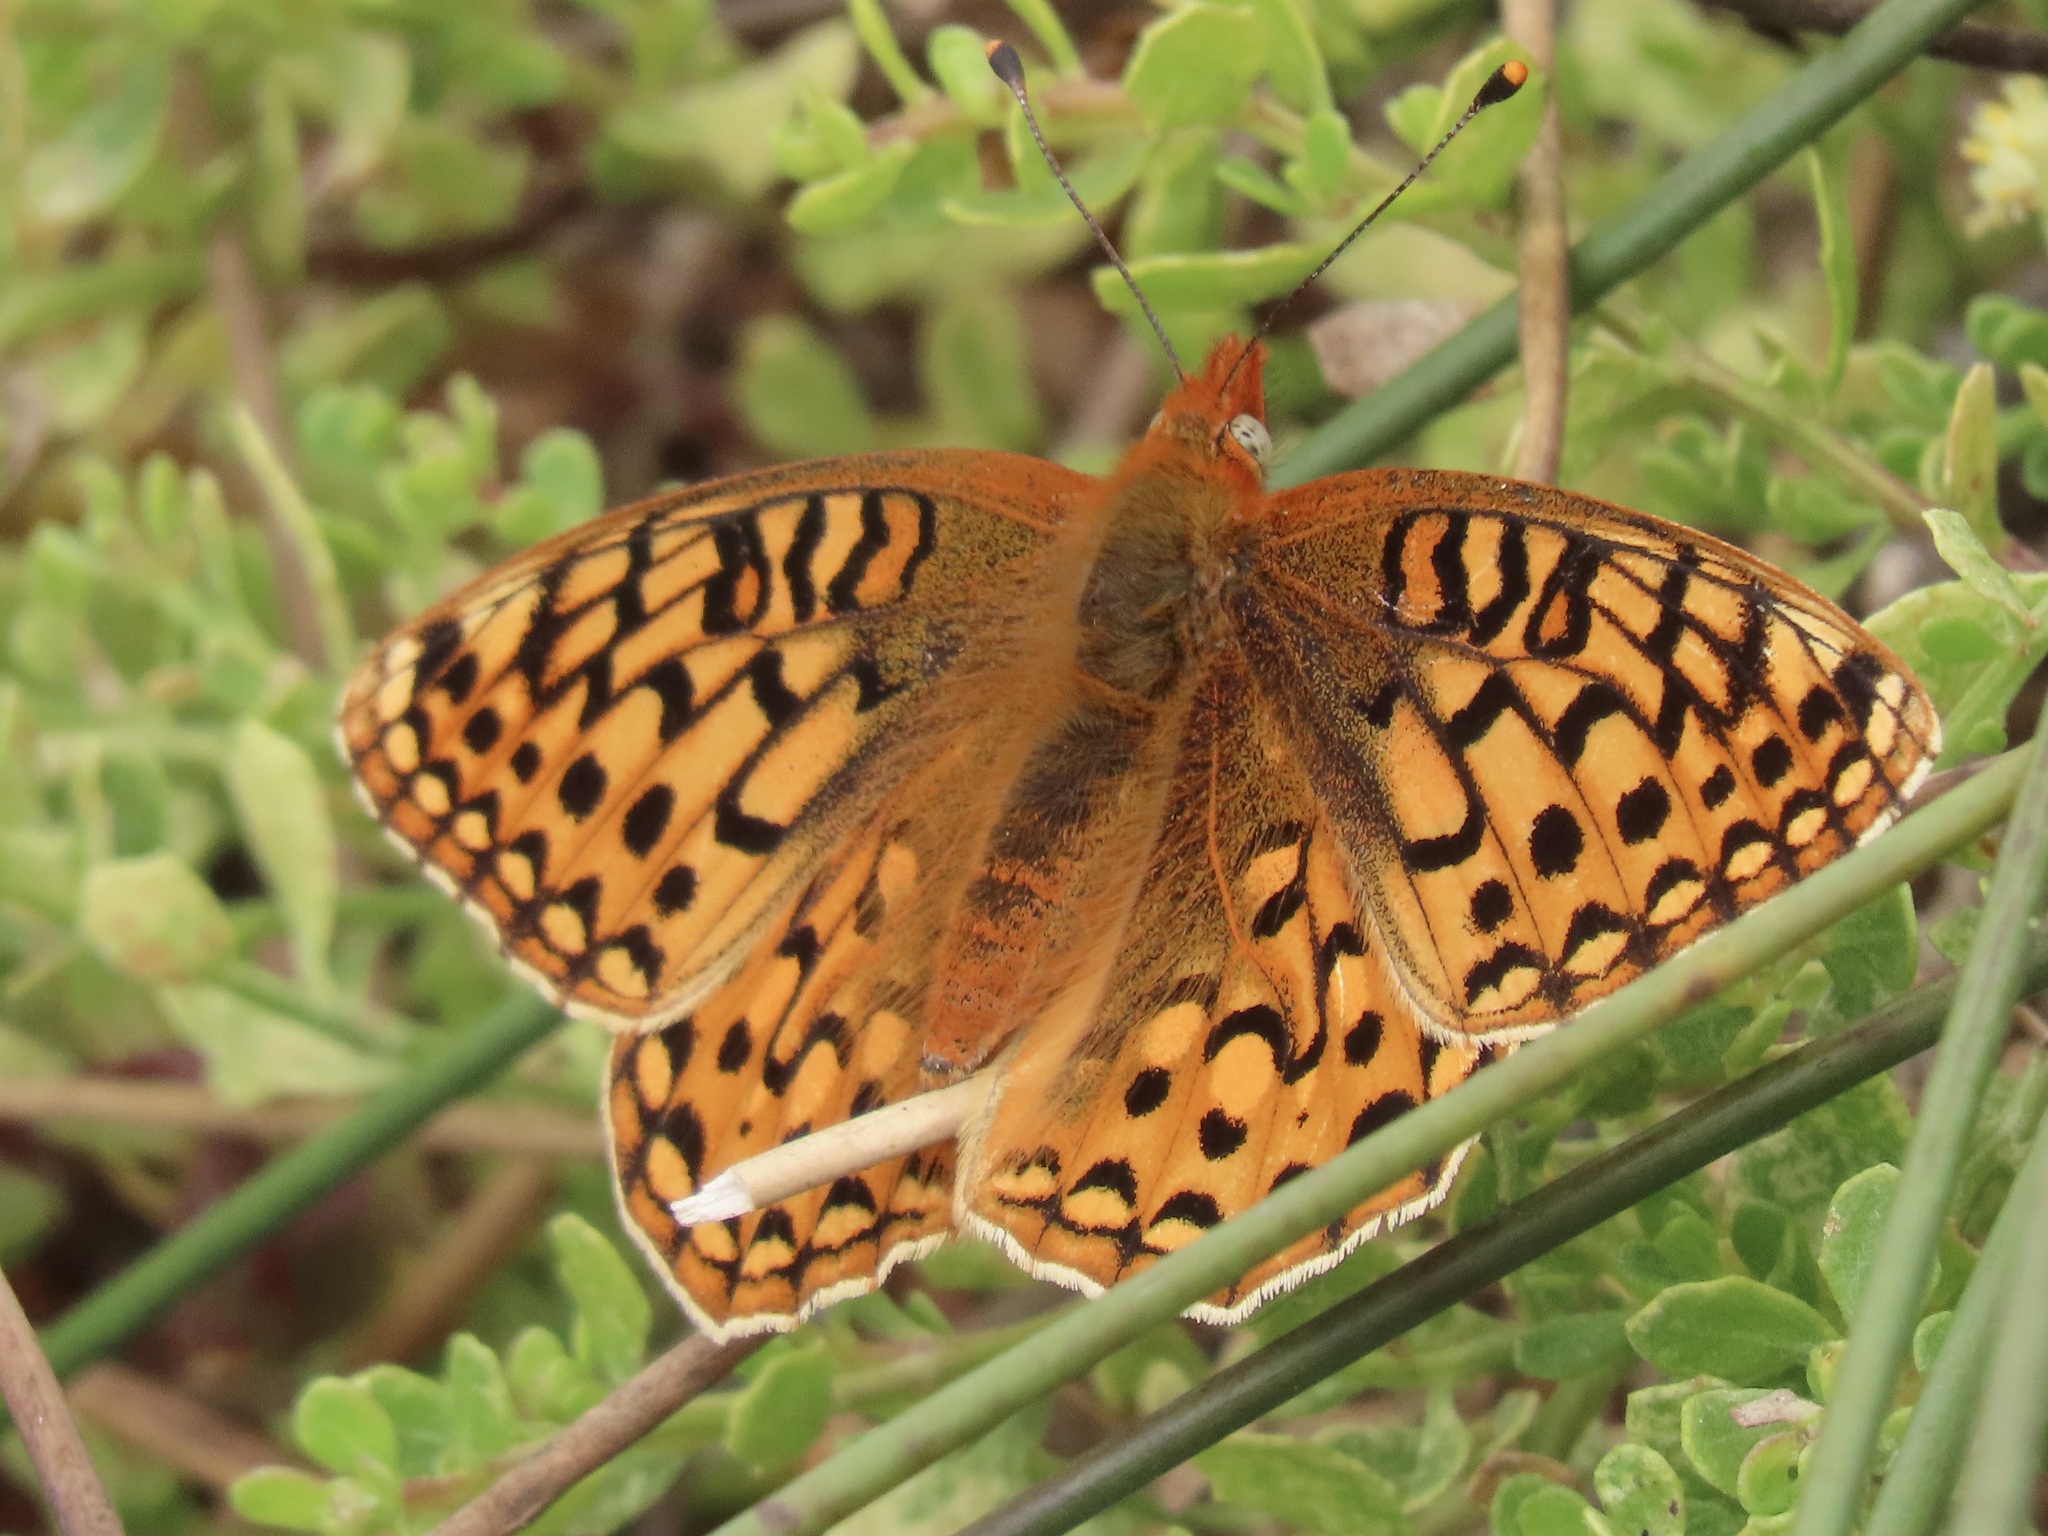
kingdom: Animalia
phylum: Arthropoda
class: Insecta
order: Lepidoptera
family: Nymphalidae
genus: Speyeria
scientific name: Speyeria zerene
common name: Zerene fritillary
